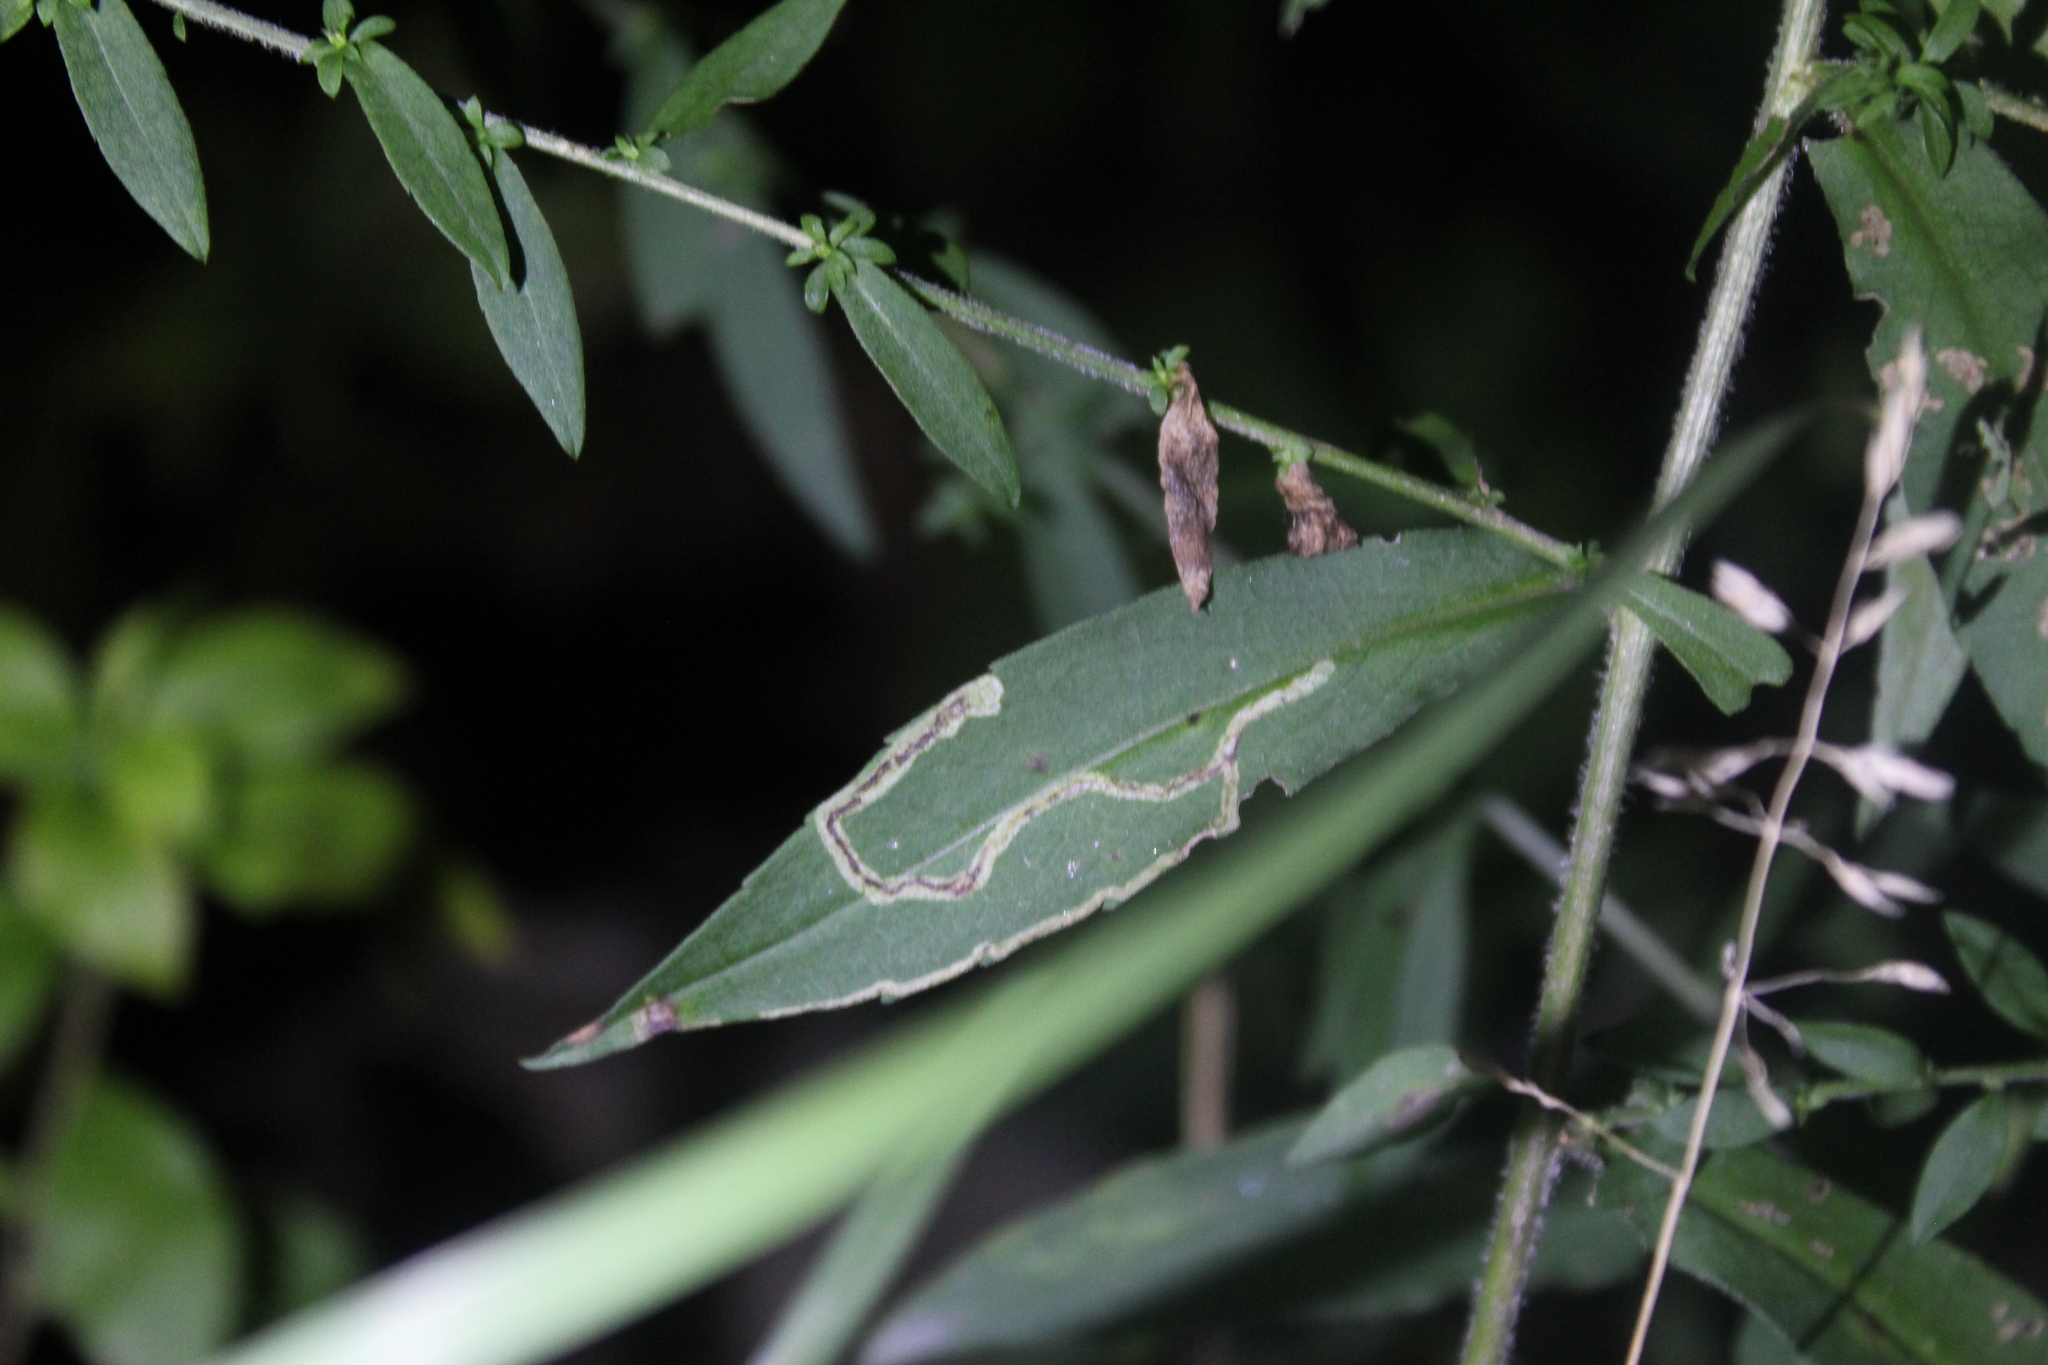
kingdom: Animalia
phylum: Arthropoda
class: Insecta
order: Diptera
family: Agromyzidae
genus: Liriomyza
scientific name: Liriomyza eupatorii
